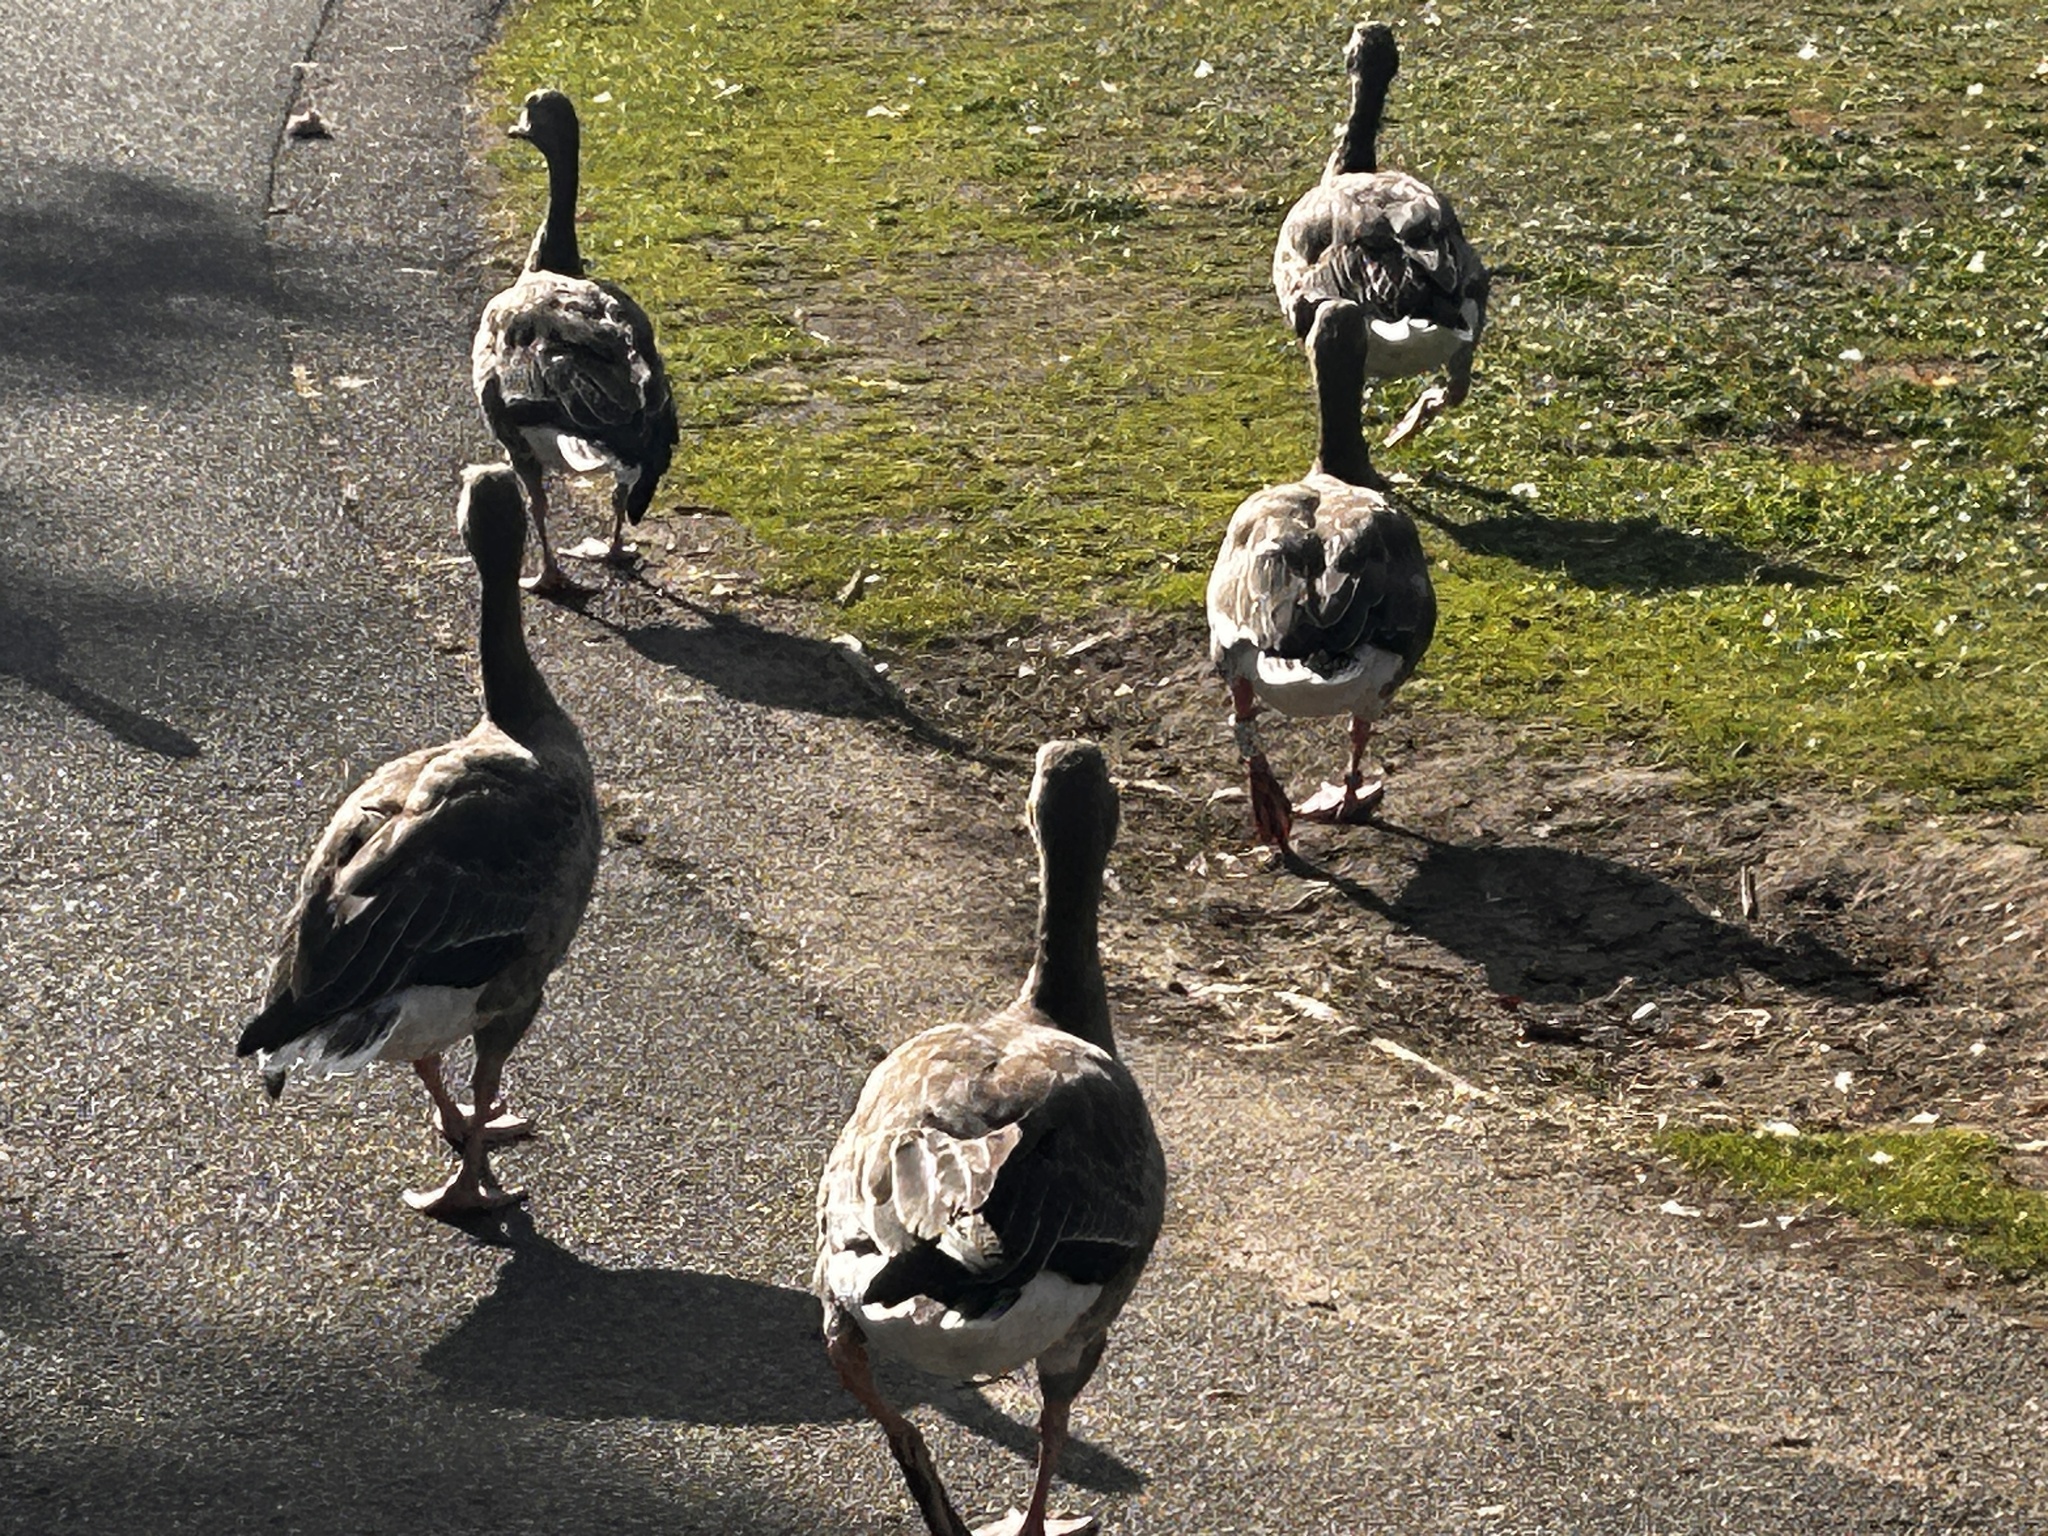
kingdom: Animalia
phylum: Chordata
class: Aves
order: Anseriformes
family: Anatidae
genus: Anser
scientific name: Anser anser
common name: Greylag goose
